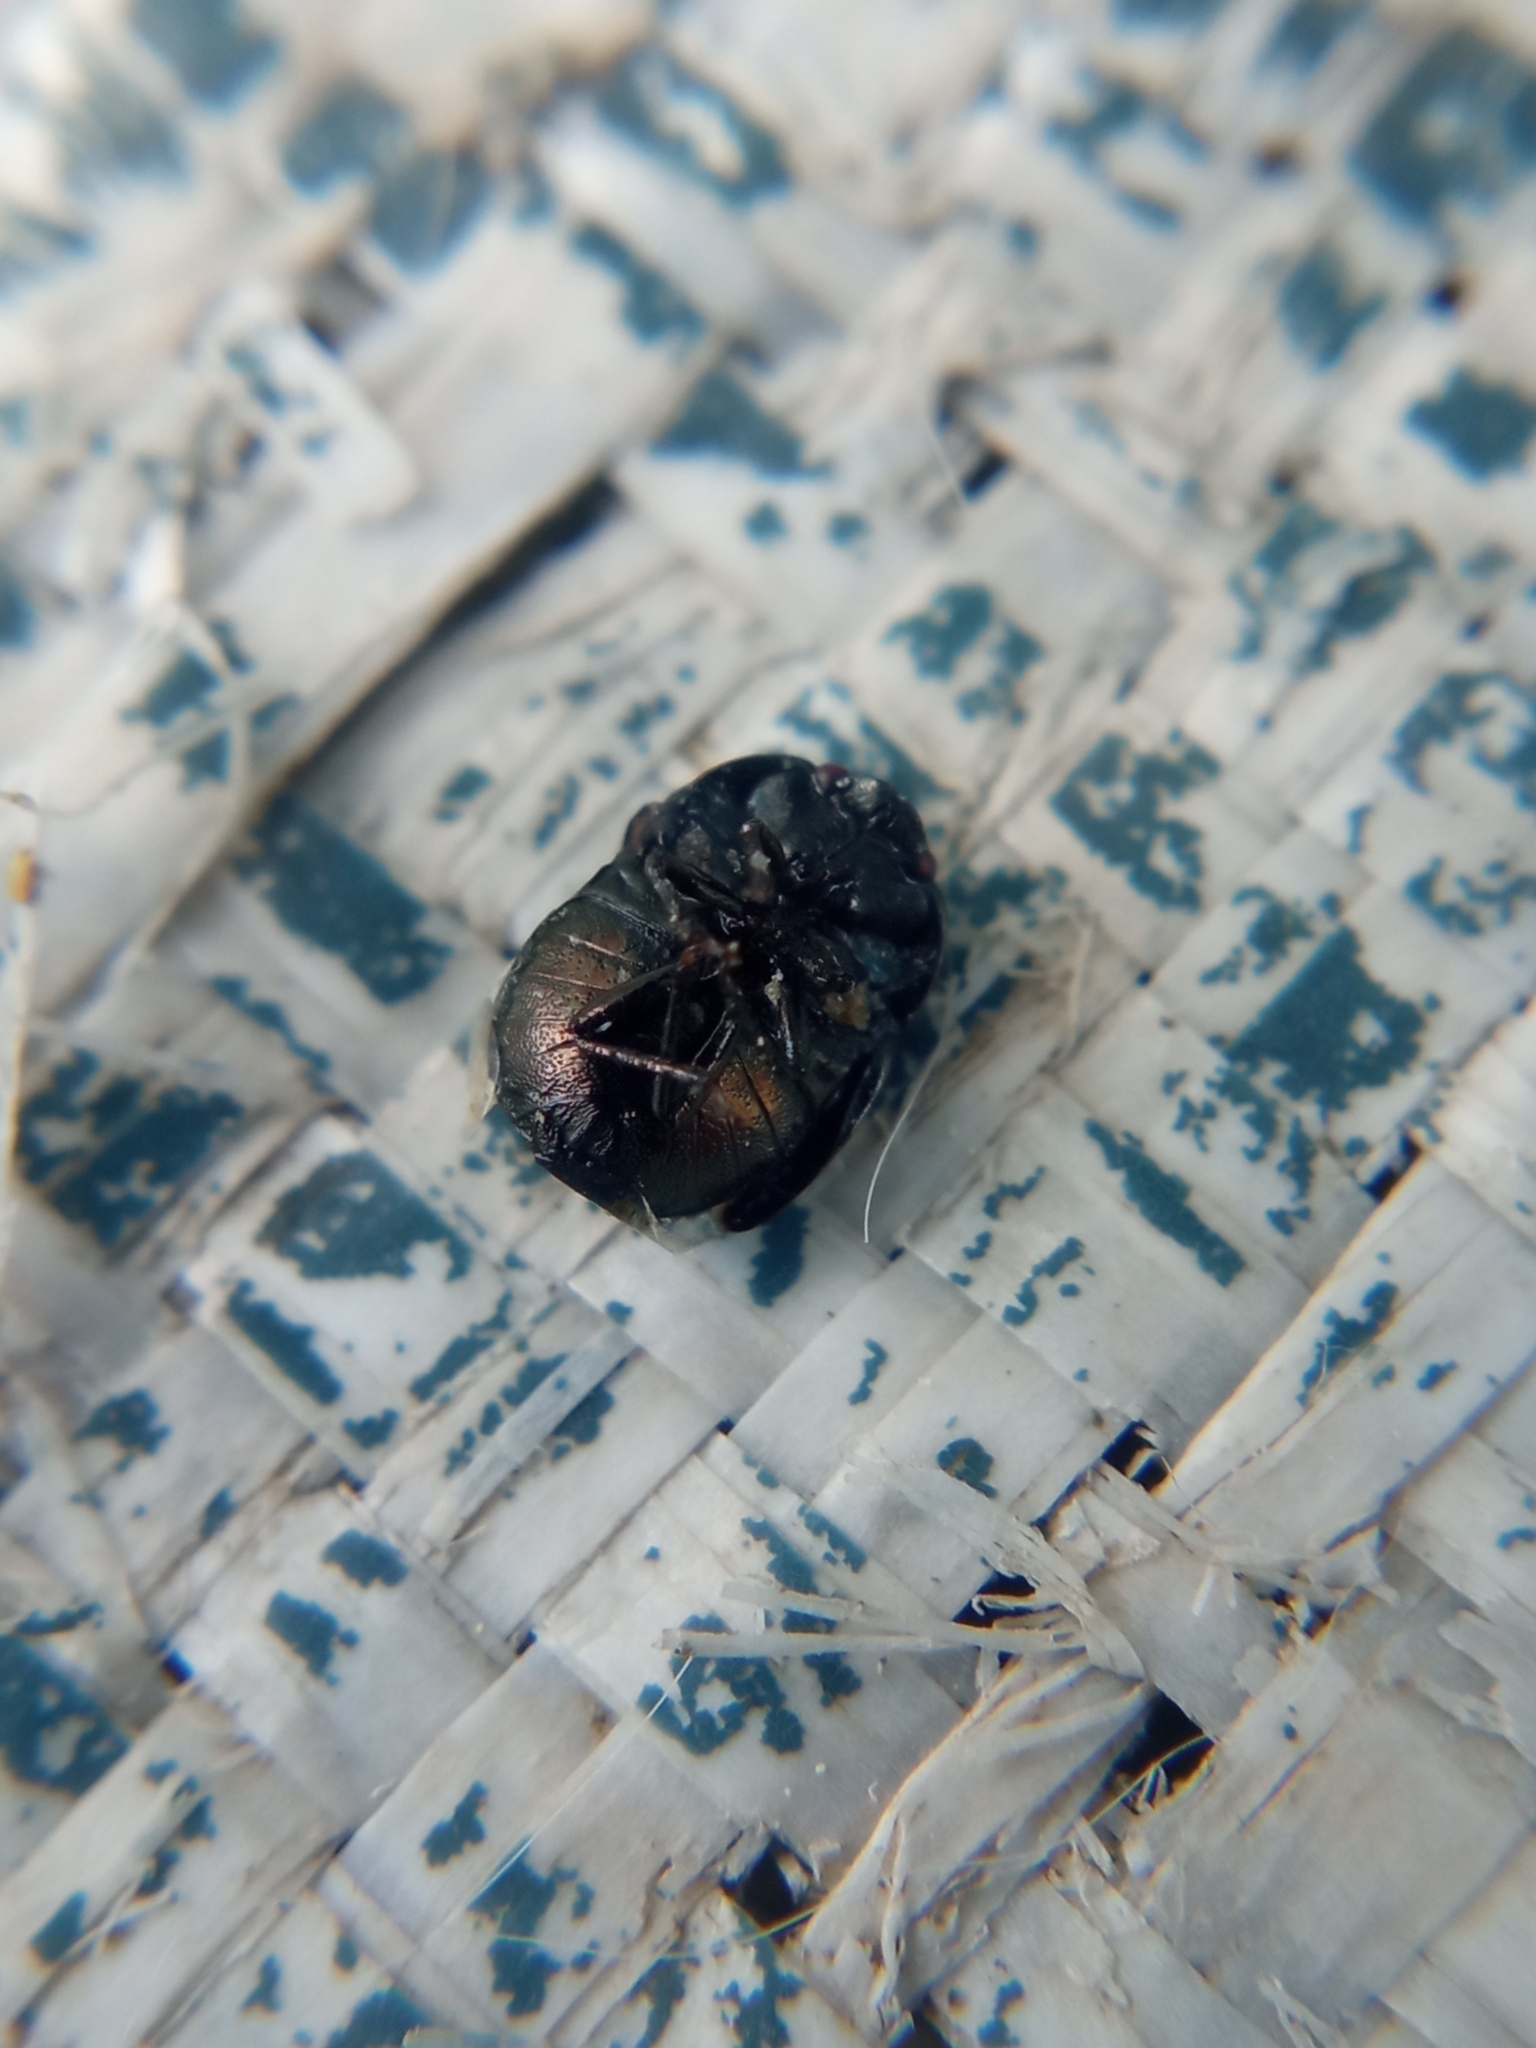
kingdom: Animalia
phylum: Arthropoda
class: Insecta
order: Hemiptera
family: Thyreocoridae
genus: Thyreocoris
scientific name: Thyreocoris scarabaeoides
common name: Negro bug
